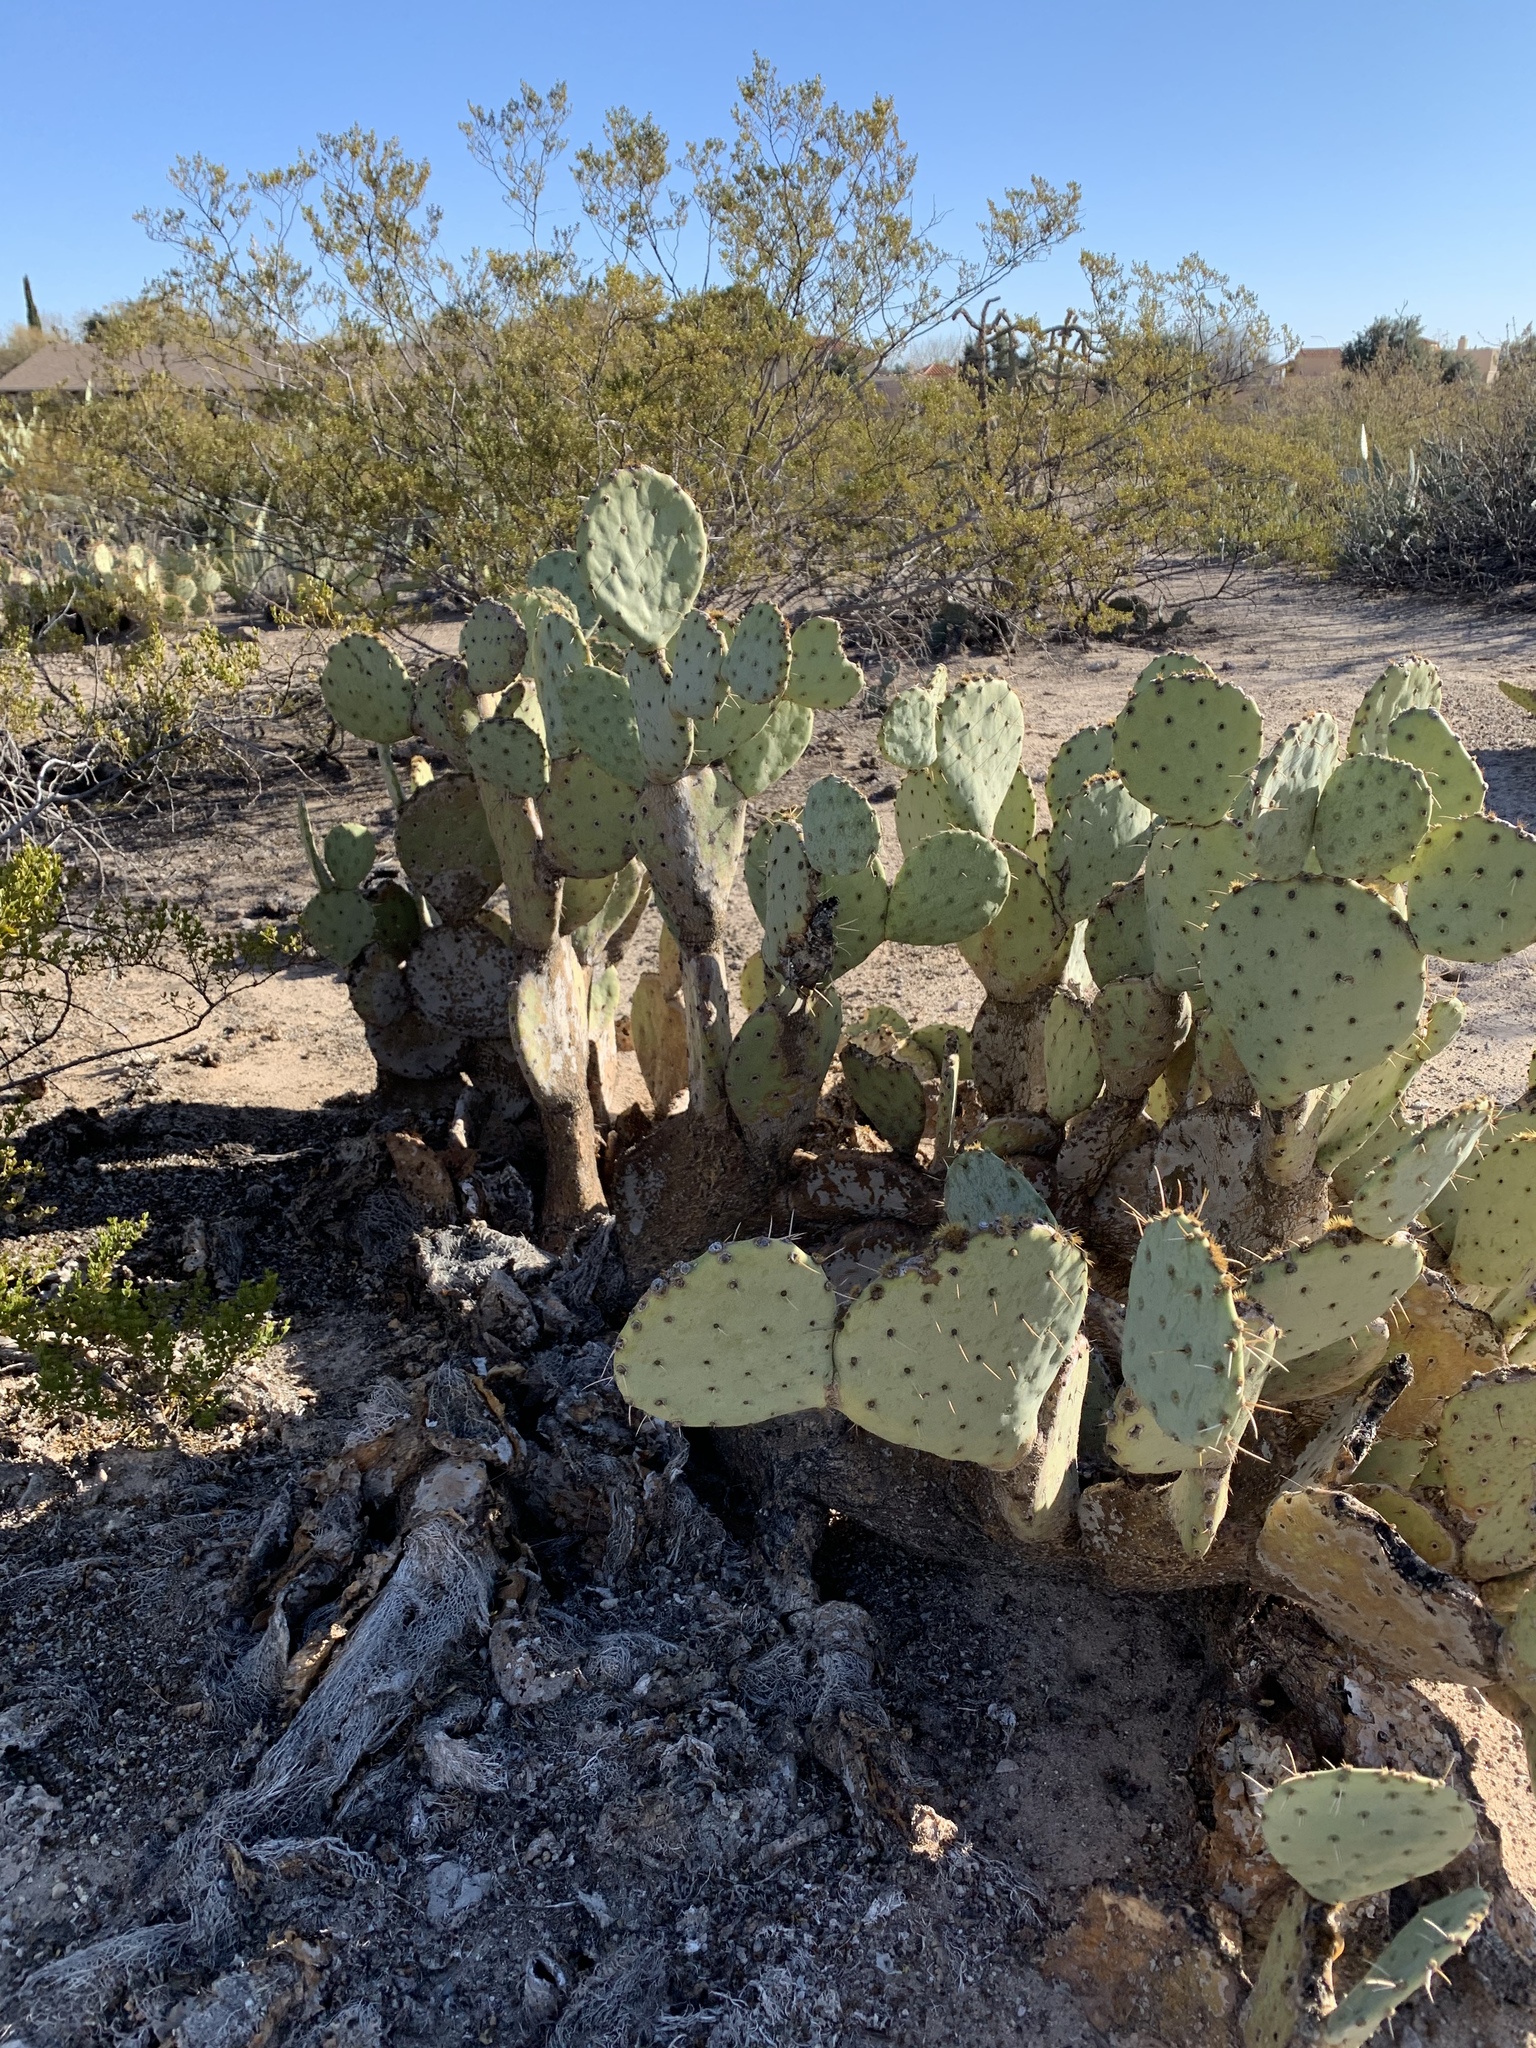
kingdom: Plantae
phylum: Tracheophyta
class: Magnoliopsida
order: Caryophyllales
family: Cactaceae
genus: Opuntia
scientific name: Opuntia engelmannii
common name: Cactus-apple
